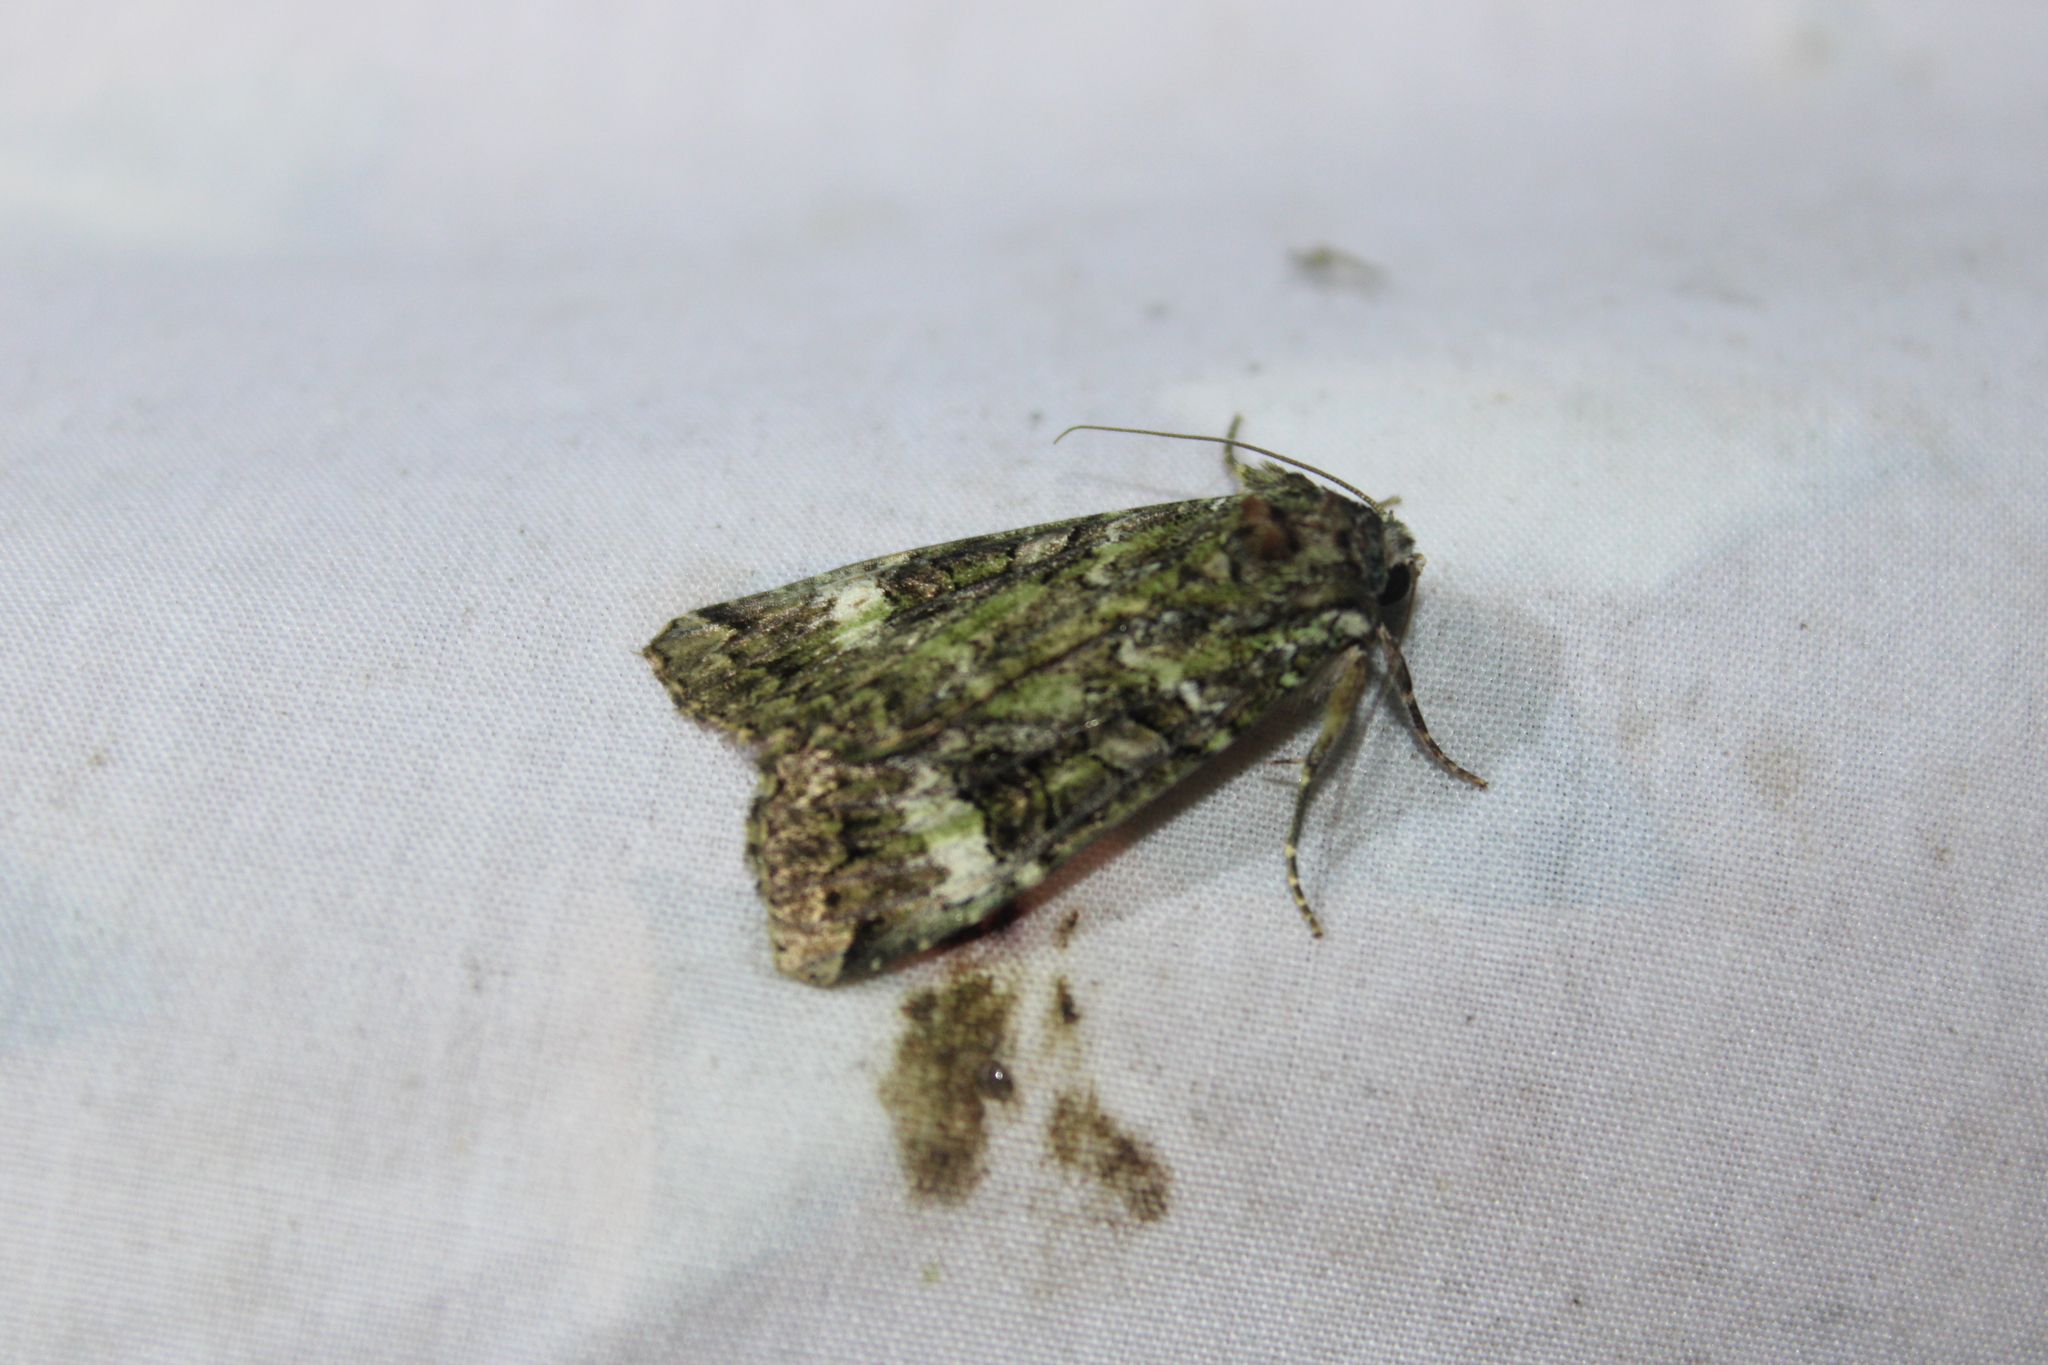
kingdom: Animalia
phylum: Arthropoda
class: Insecta
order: Lepidoptera
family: Noctuidae
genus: Anaplectoides
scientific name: Anaplectoides prasina
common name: Green arches
